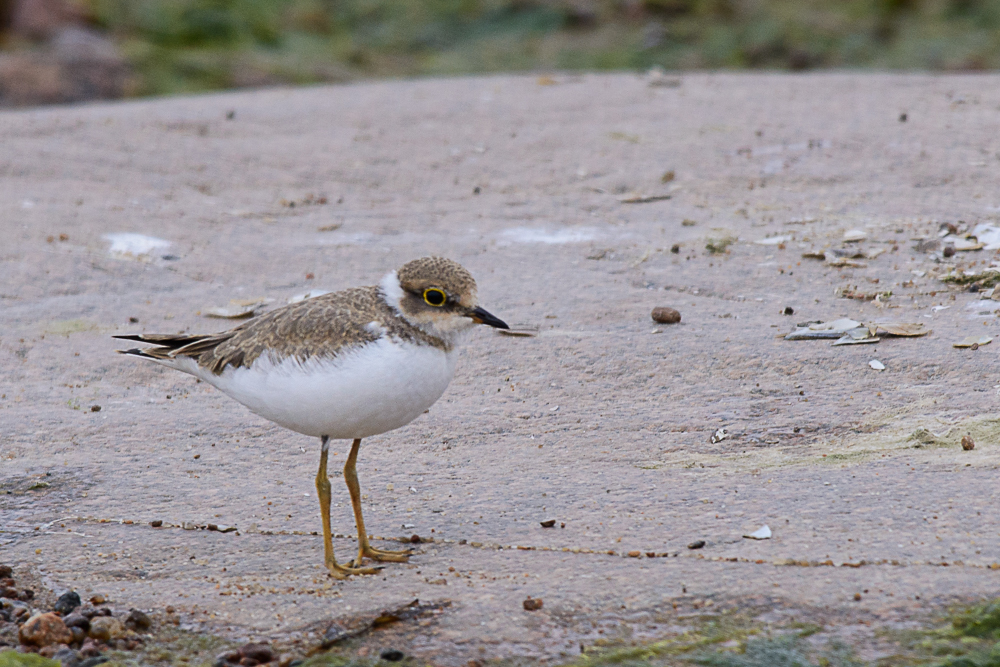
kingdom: Animalia
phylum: Chordata
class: Aves
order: Charadriiformes
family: Charadriidae
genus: Charadrius
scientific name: Charadrius dubius
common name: Little ringed plover
